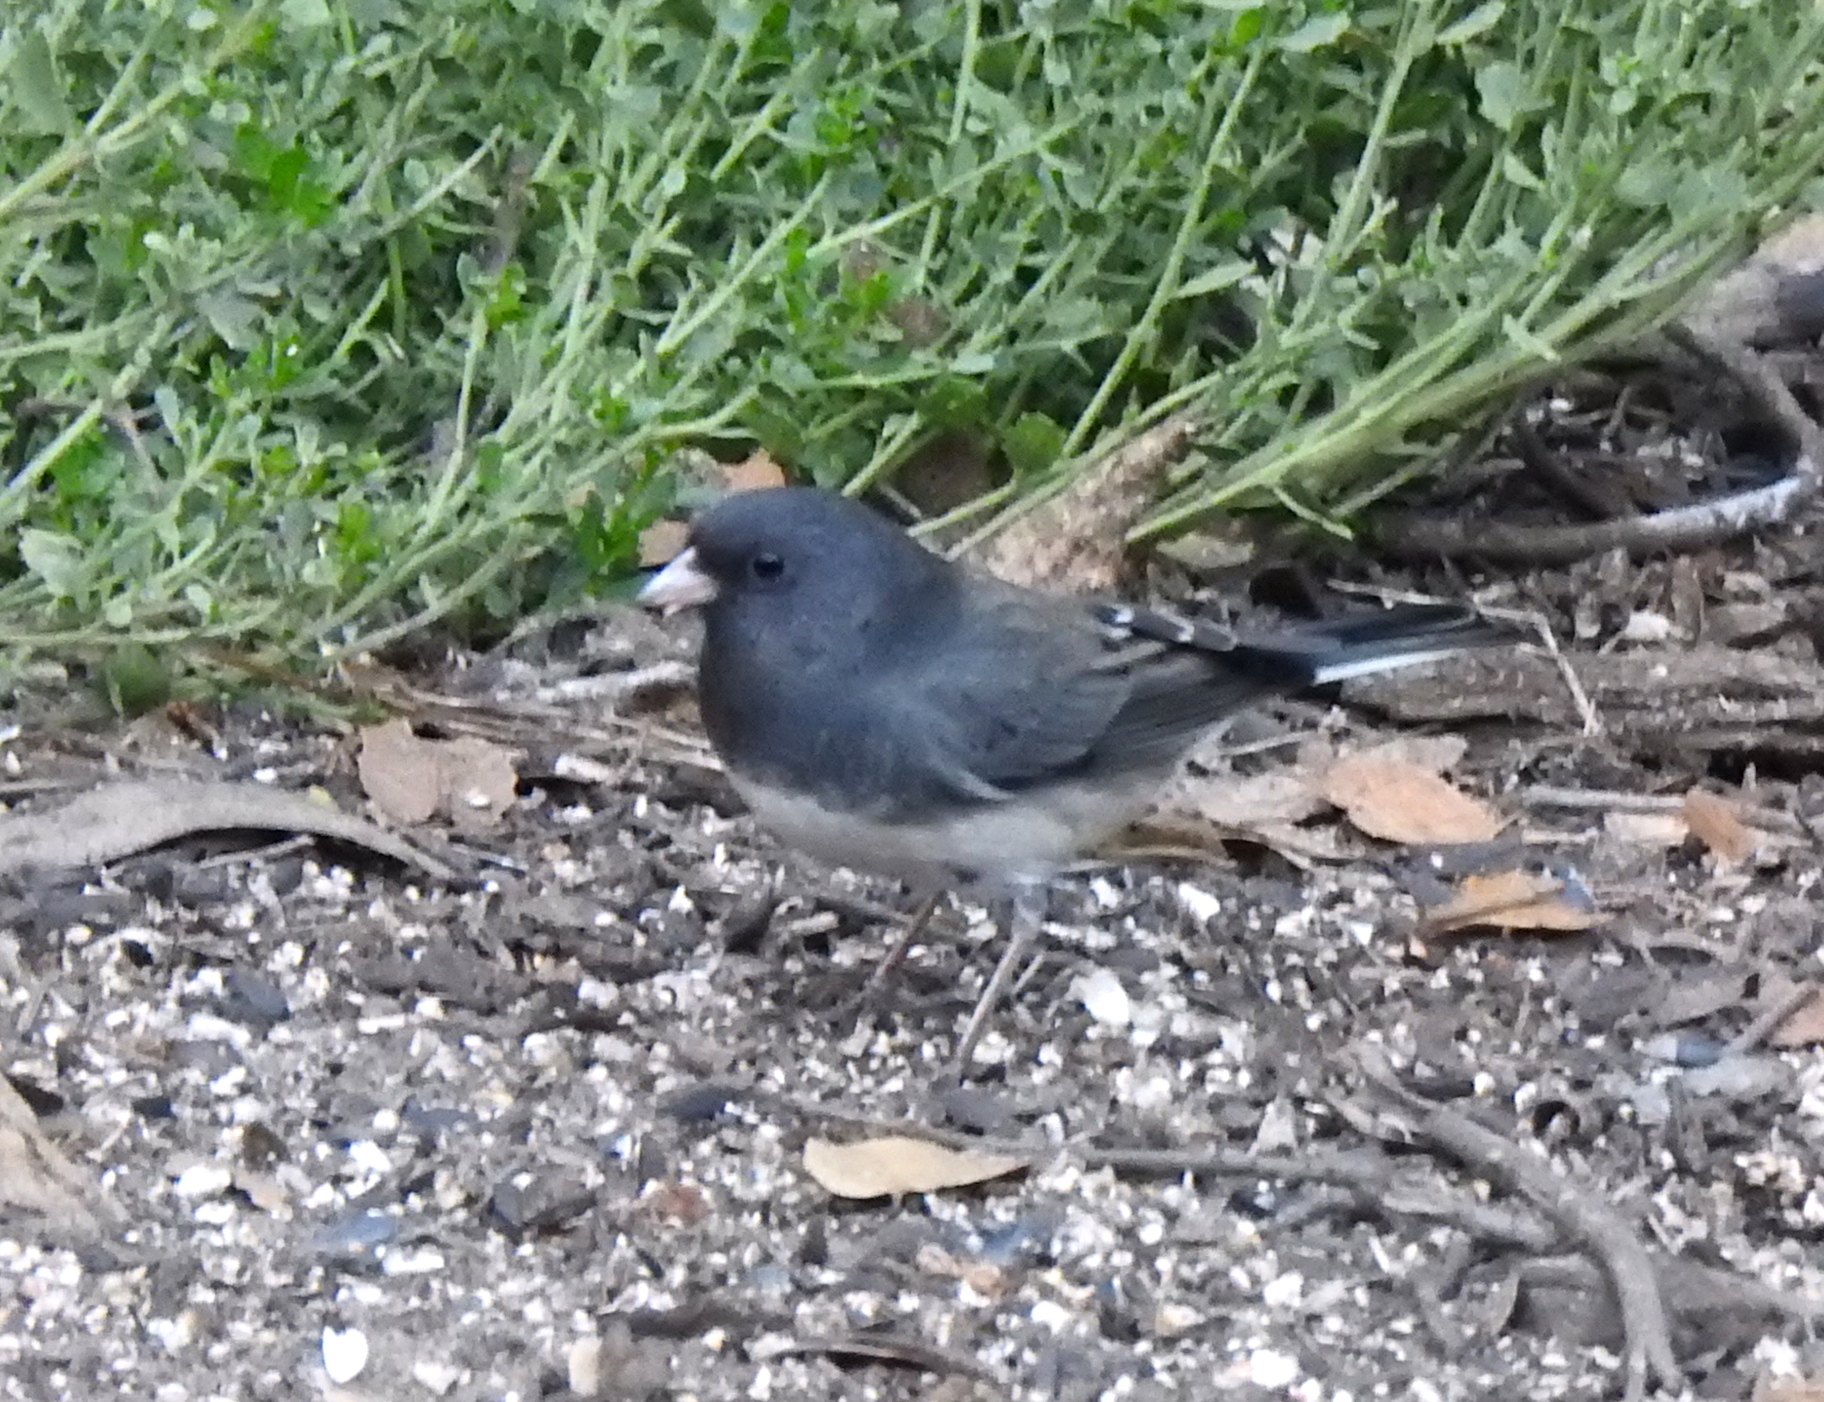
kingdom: Animalia
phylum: Chordata
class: Aves
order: Passeriformes
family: Passerellidae
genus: Junco
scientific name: Junco hyemalis
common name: Dark-eyed junco
